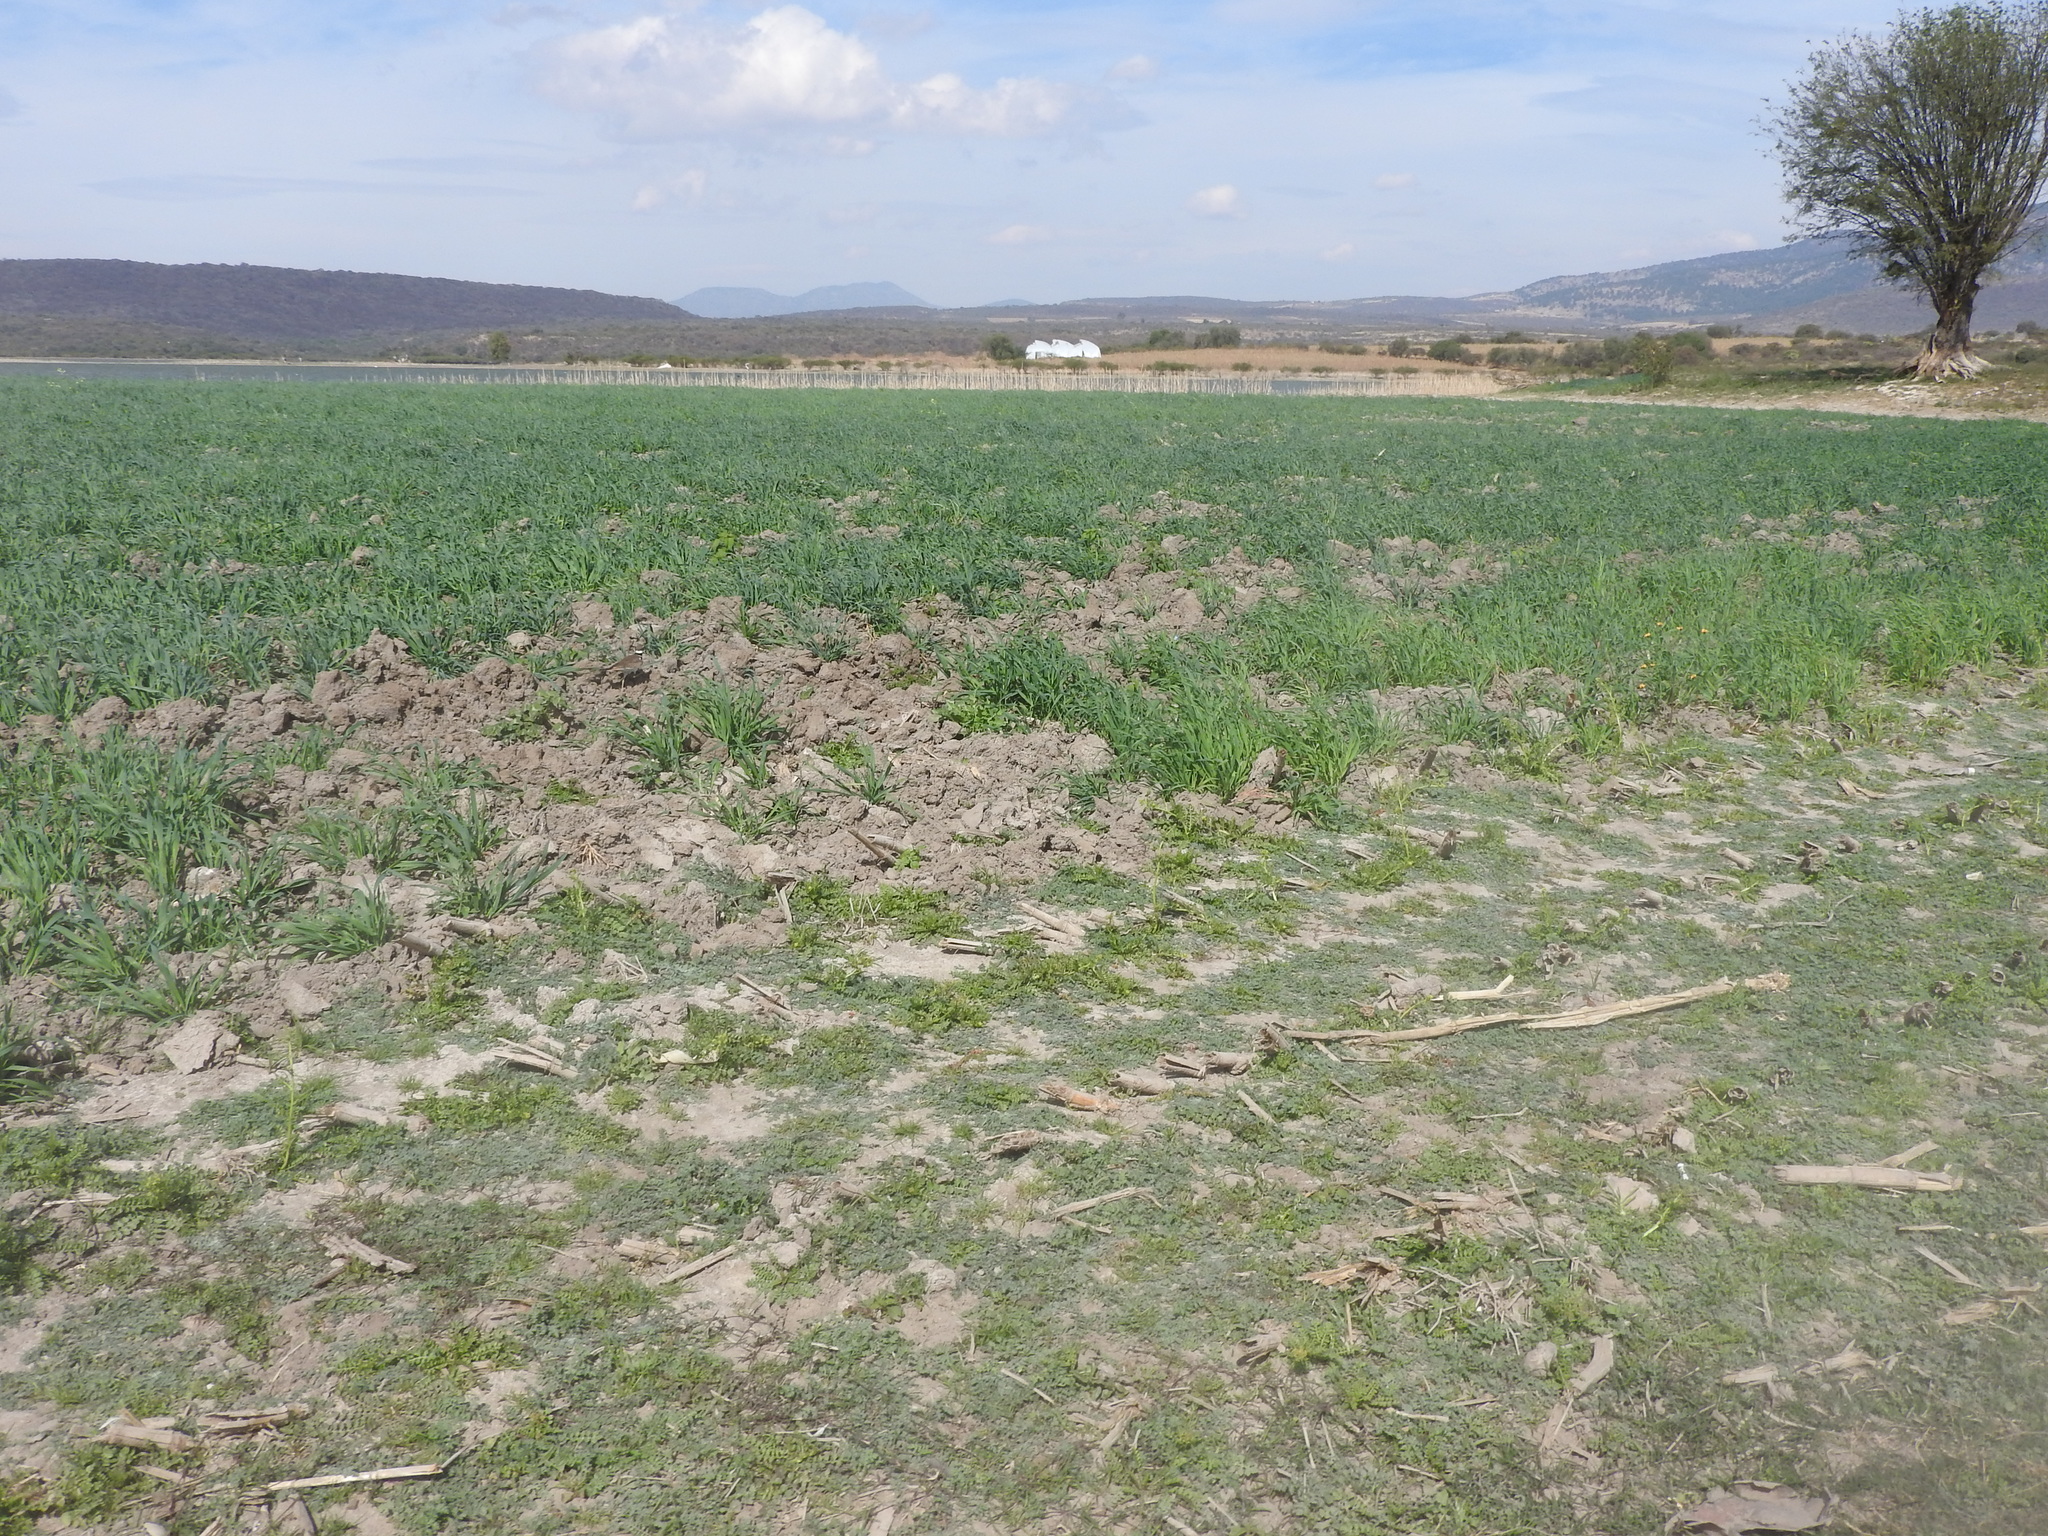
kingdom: Animalia
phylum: Chordata
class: Aves
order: Charadriiformes
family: Charadriidae
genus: Charadrius
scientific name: Charadrius vociferus
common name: Killdeer
